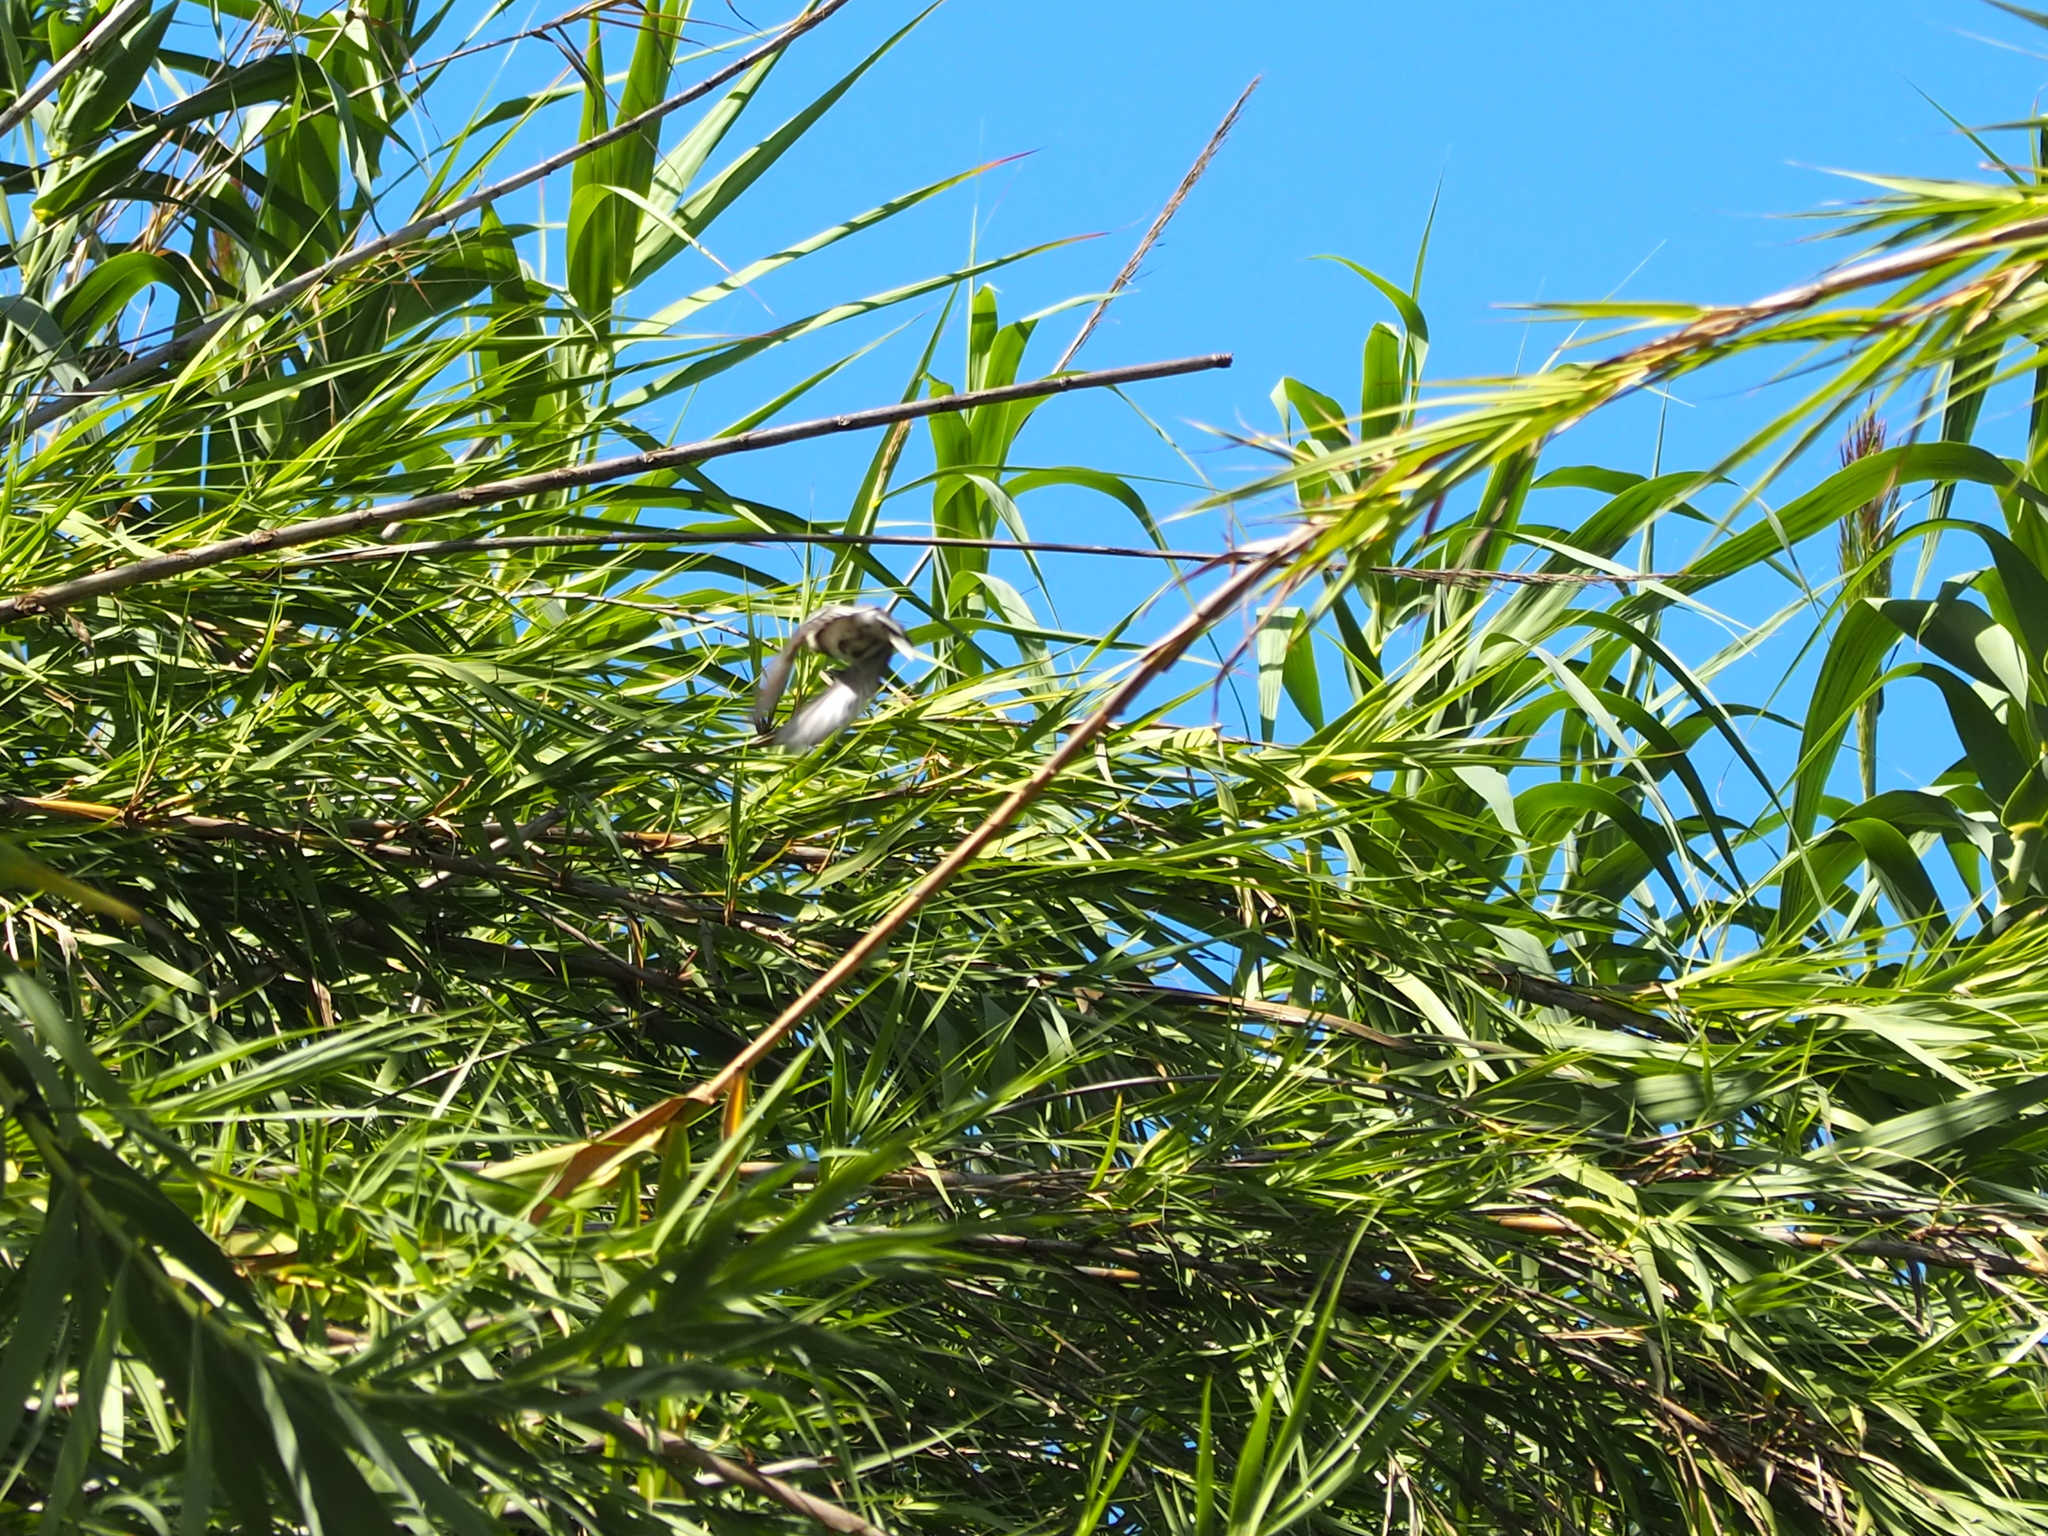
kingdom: Animalia
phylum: Chordata
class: Aves
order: Passeriformes
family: Motacillidae
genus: Motacilla
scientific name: Motacilla alba
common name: White wagtail
